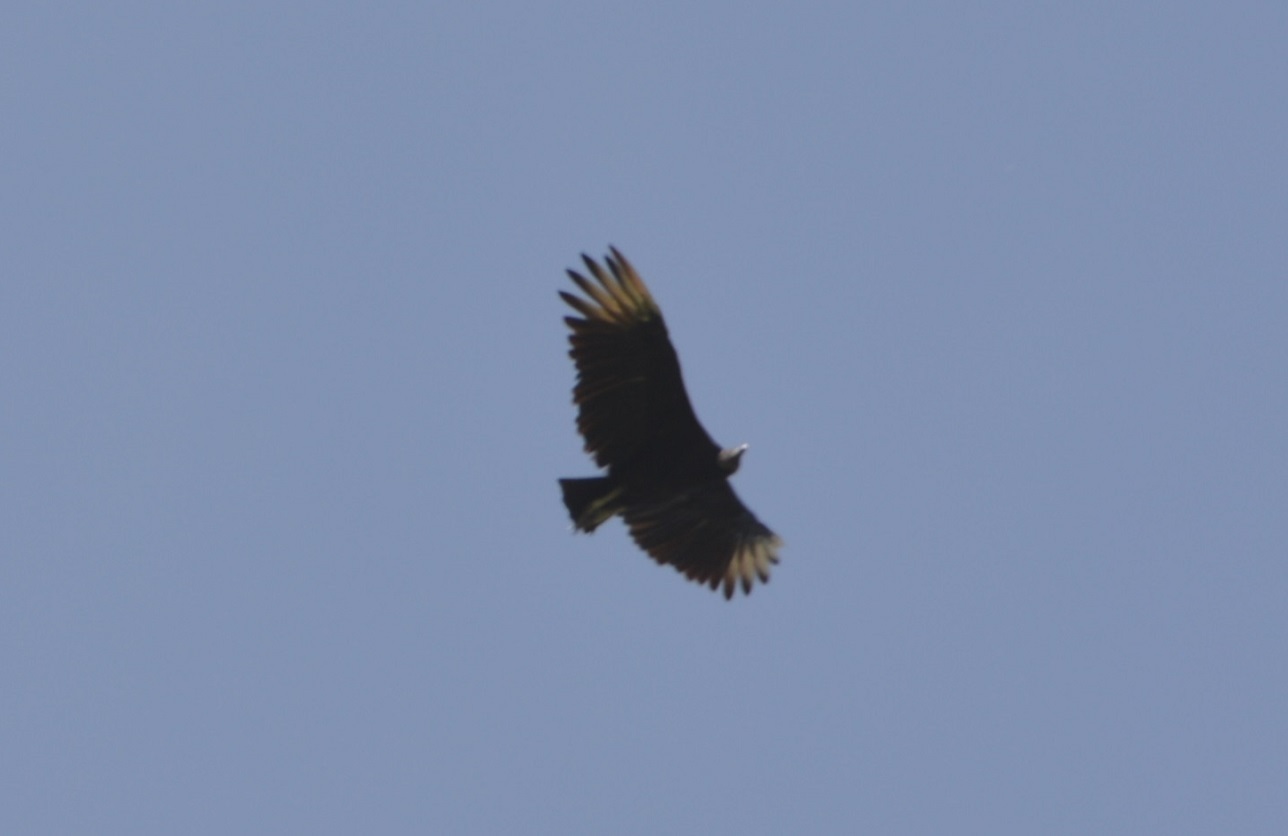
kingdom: Animalia
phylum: Chordata
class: Aves
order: Accipitriformes
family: Cathartidae
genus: Coragyps
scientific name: Coragyps atratus
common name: Black vulture
